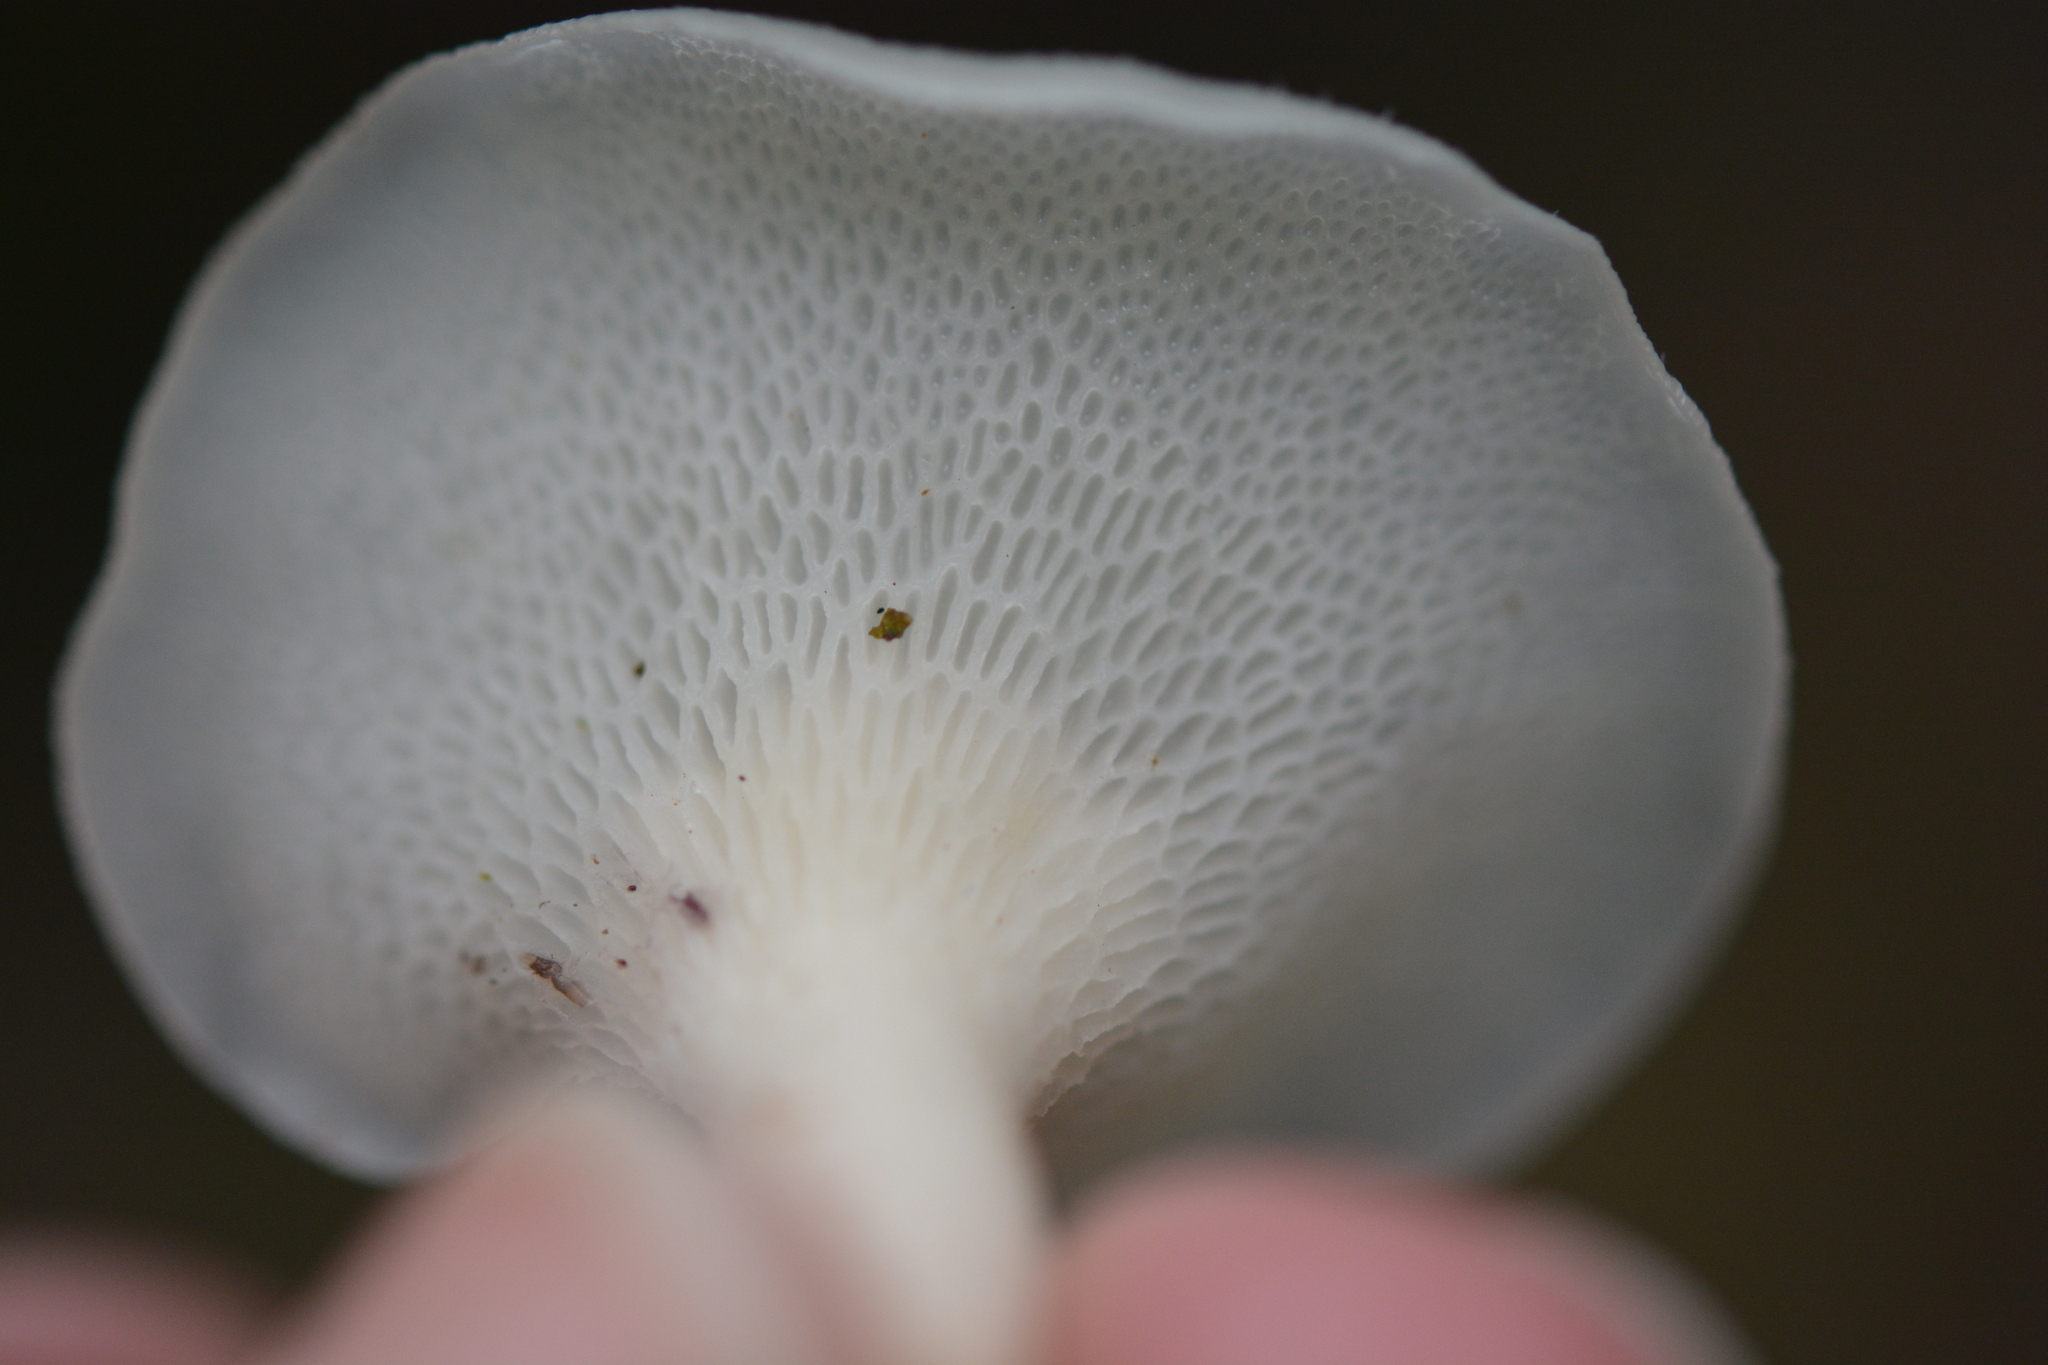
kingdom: Fungi
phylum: Basidiomycota
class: Agaricomycetes
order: Polyporales
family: Polyporaceae
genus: Favolus
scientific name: Favolus tenuiculus
